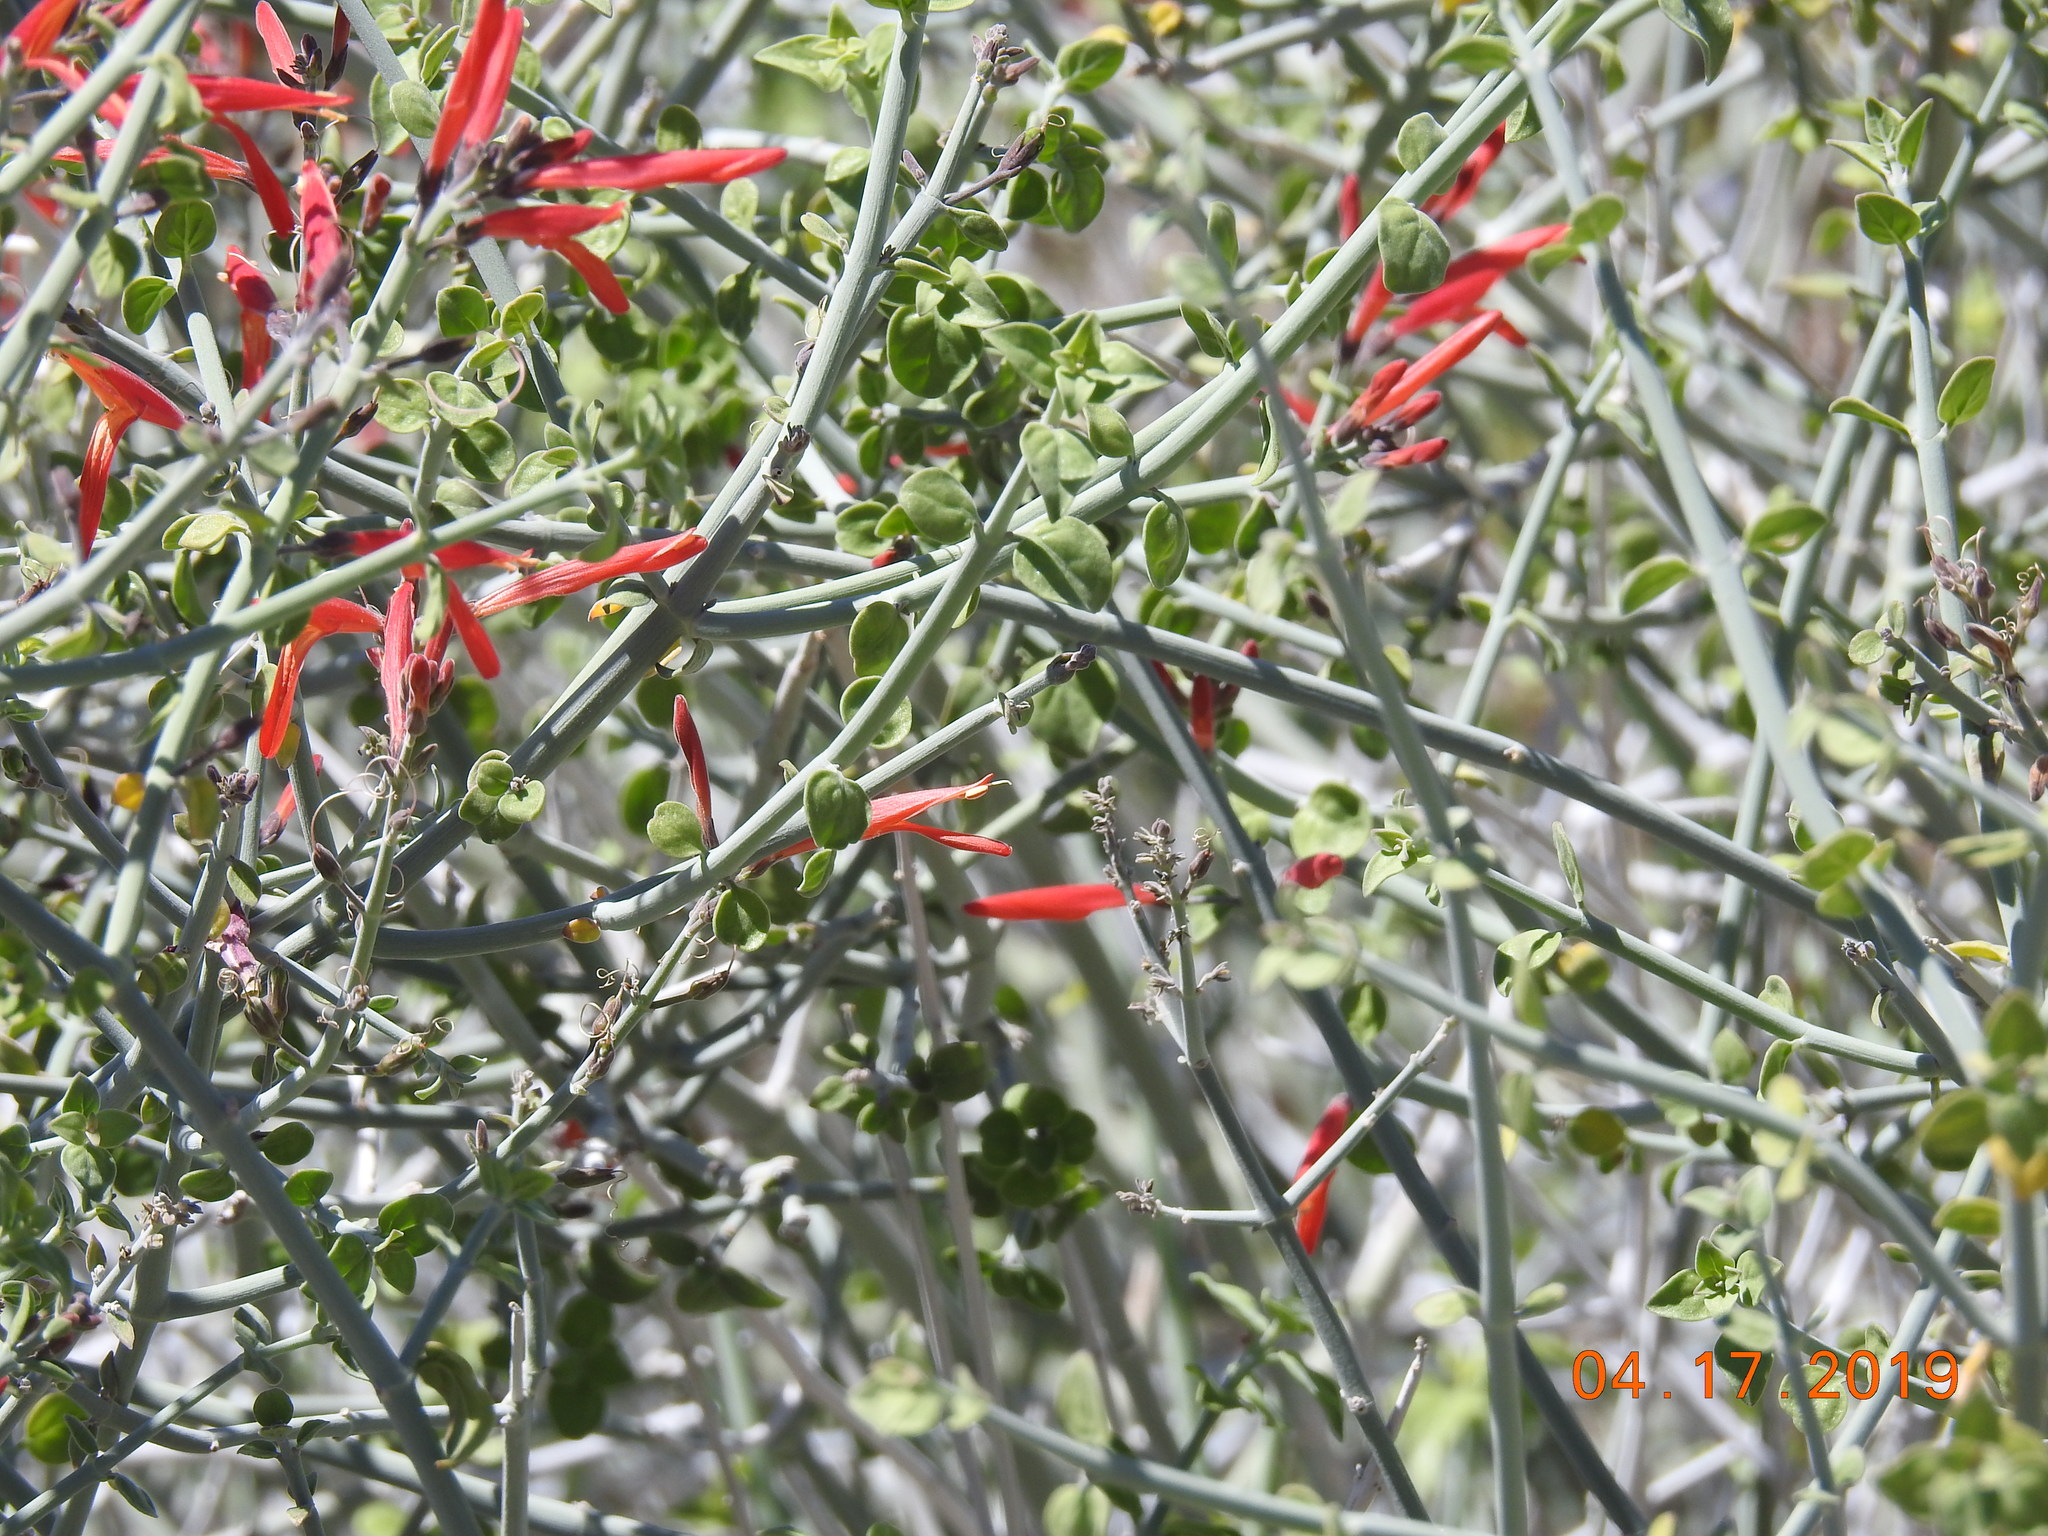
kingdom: Plantae
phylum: Tracheophyta
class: Magnoliopsida
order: Lamiales
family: Acanthaceae
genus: Justicia
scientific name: Justicia californica
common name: Chuparosa-honeysuckle
